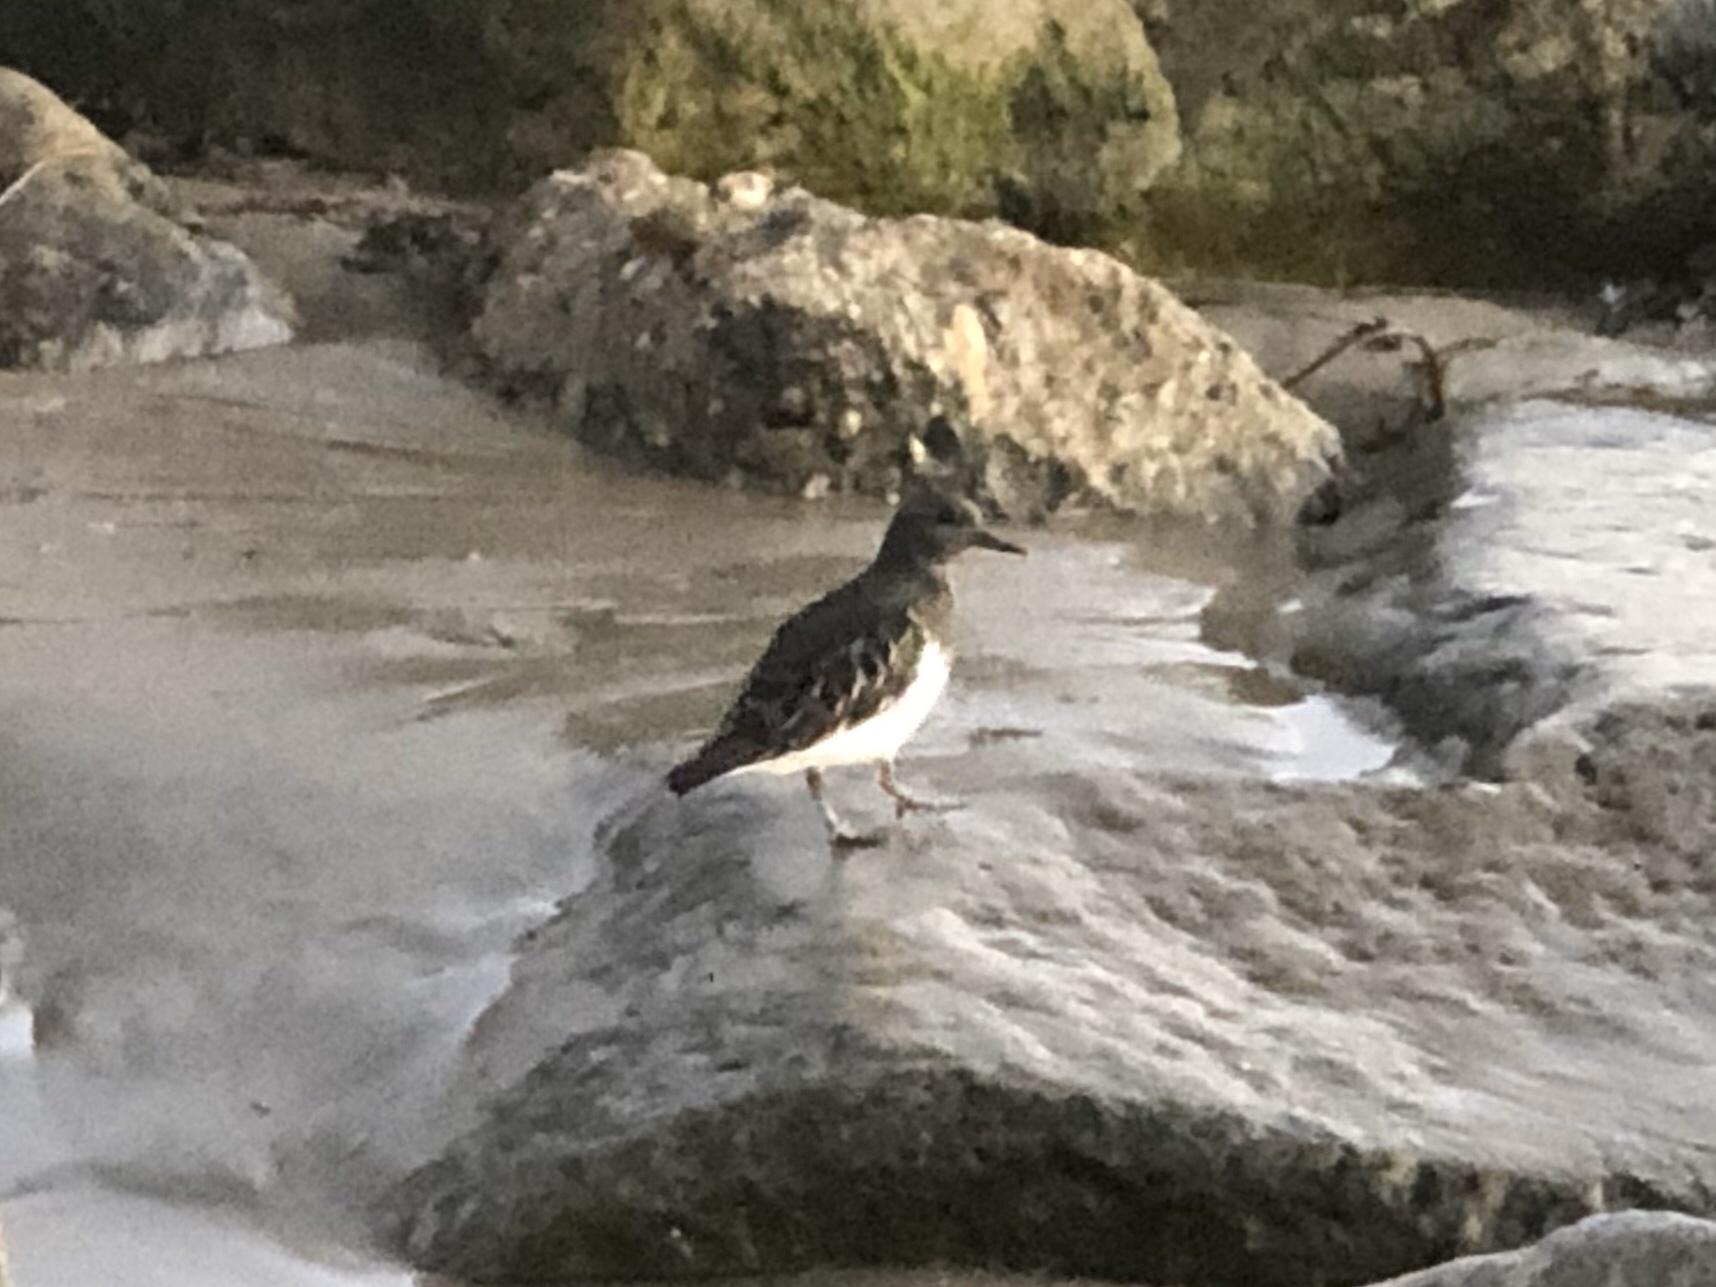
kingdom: Animalia
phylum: Chordata
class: Aves
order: Charadriiformes
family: Scolopacidae
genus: Arenaria
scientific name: Arenaria melanocephala
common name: Black turnstone
